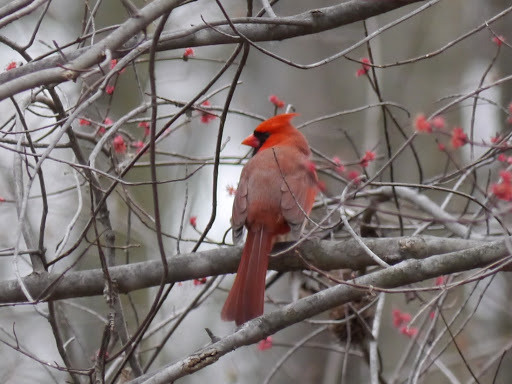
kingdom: Animalia
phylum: Chordata
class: Aves
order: Passeriformes
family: Cardinalidae
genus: Cardinalis
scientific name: Cardinalis cardinalis
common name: Northern cardinal
